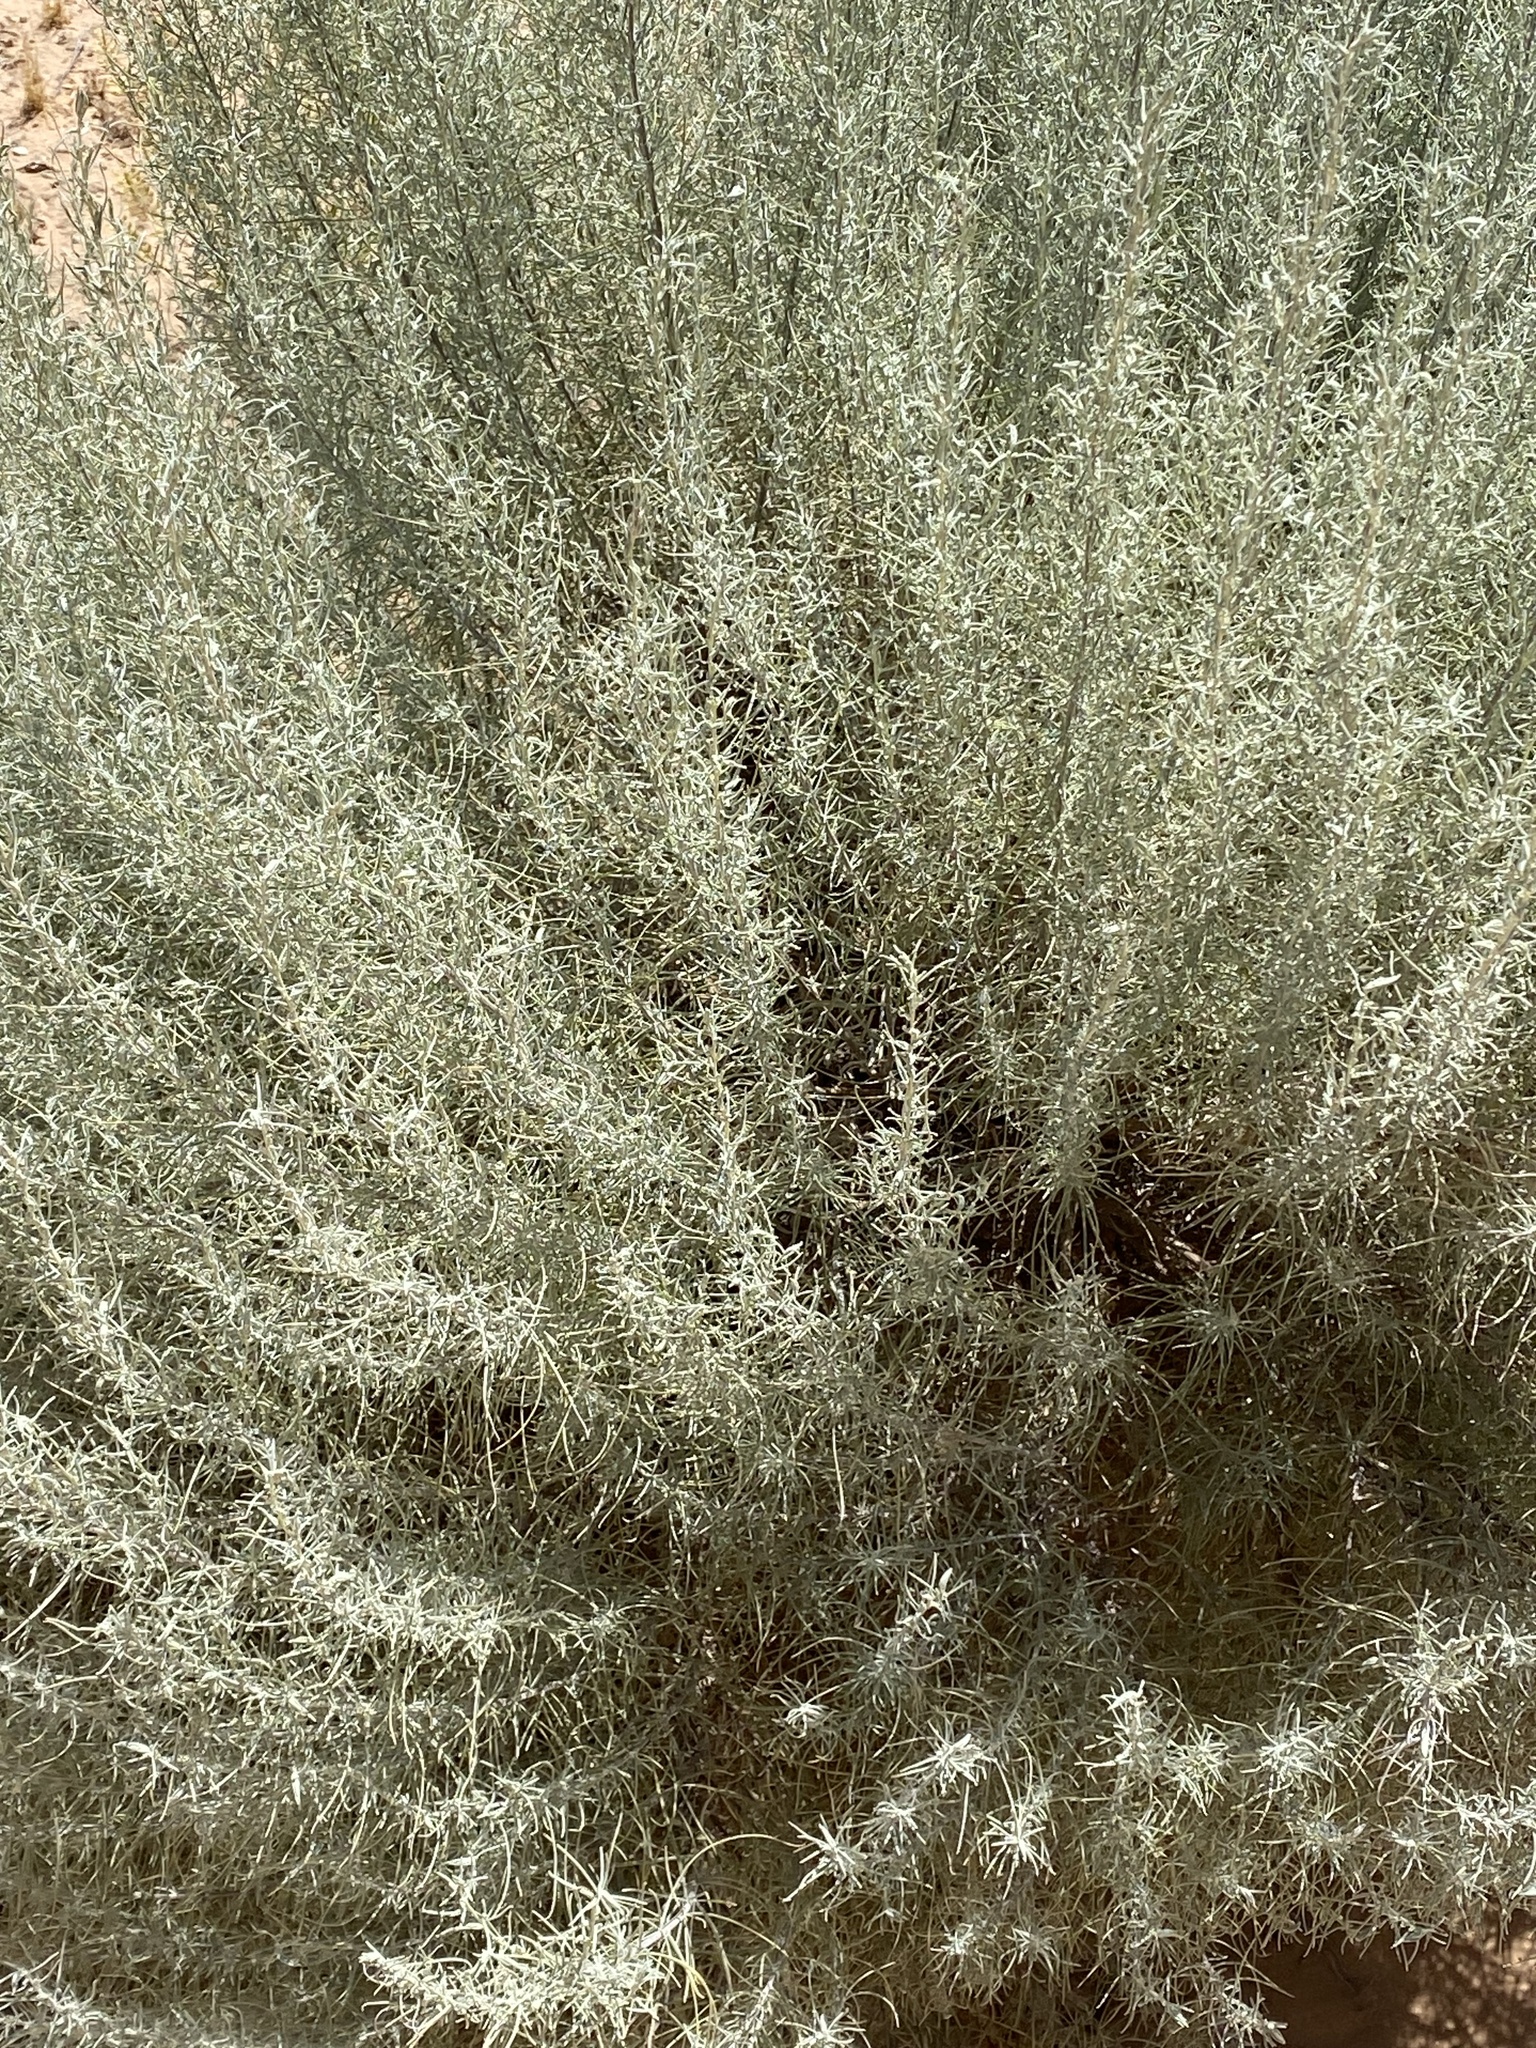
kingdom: Plantae
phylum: Tracheophyta
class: Magnoliopsida
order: Asterales
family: Asteraceae
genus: Artemisia
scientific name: Artemisia filifolia
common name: Sand-sage
